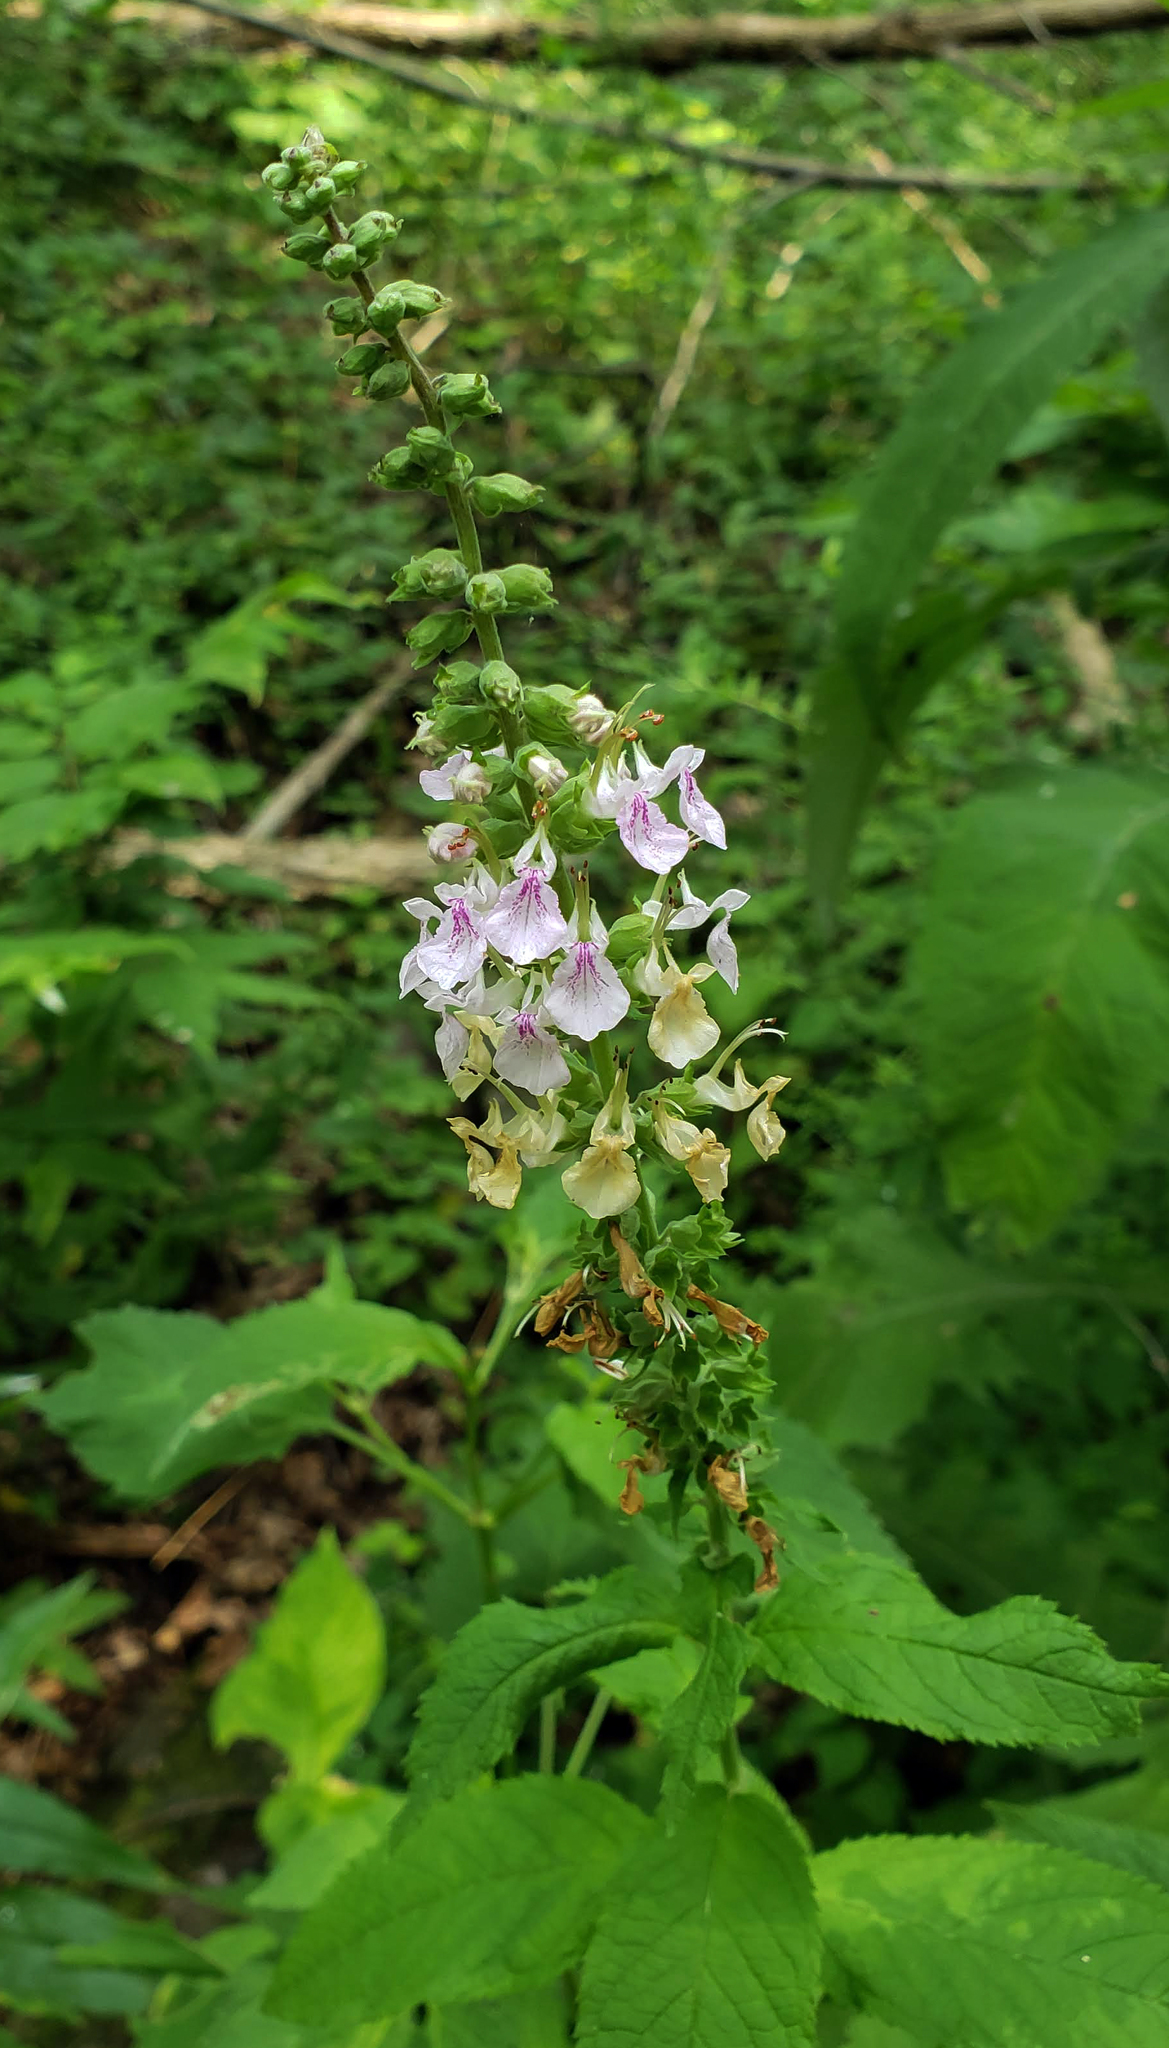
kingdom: Plantae
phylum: Tracheophyta
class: Magnoliopsida
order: Lamiales
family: Lamiaceae
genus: Teucrium
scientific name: Teucrium canadense
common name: American germander
